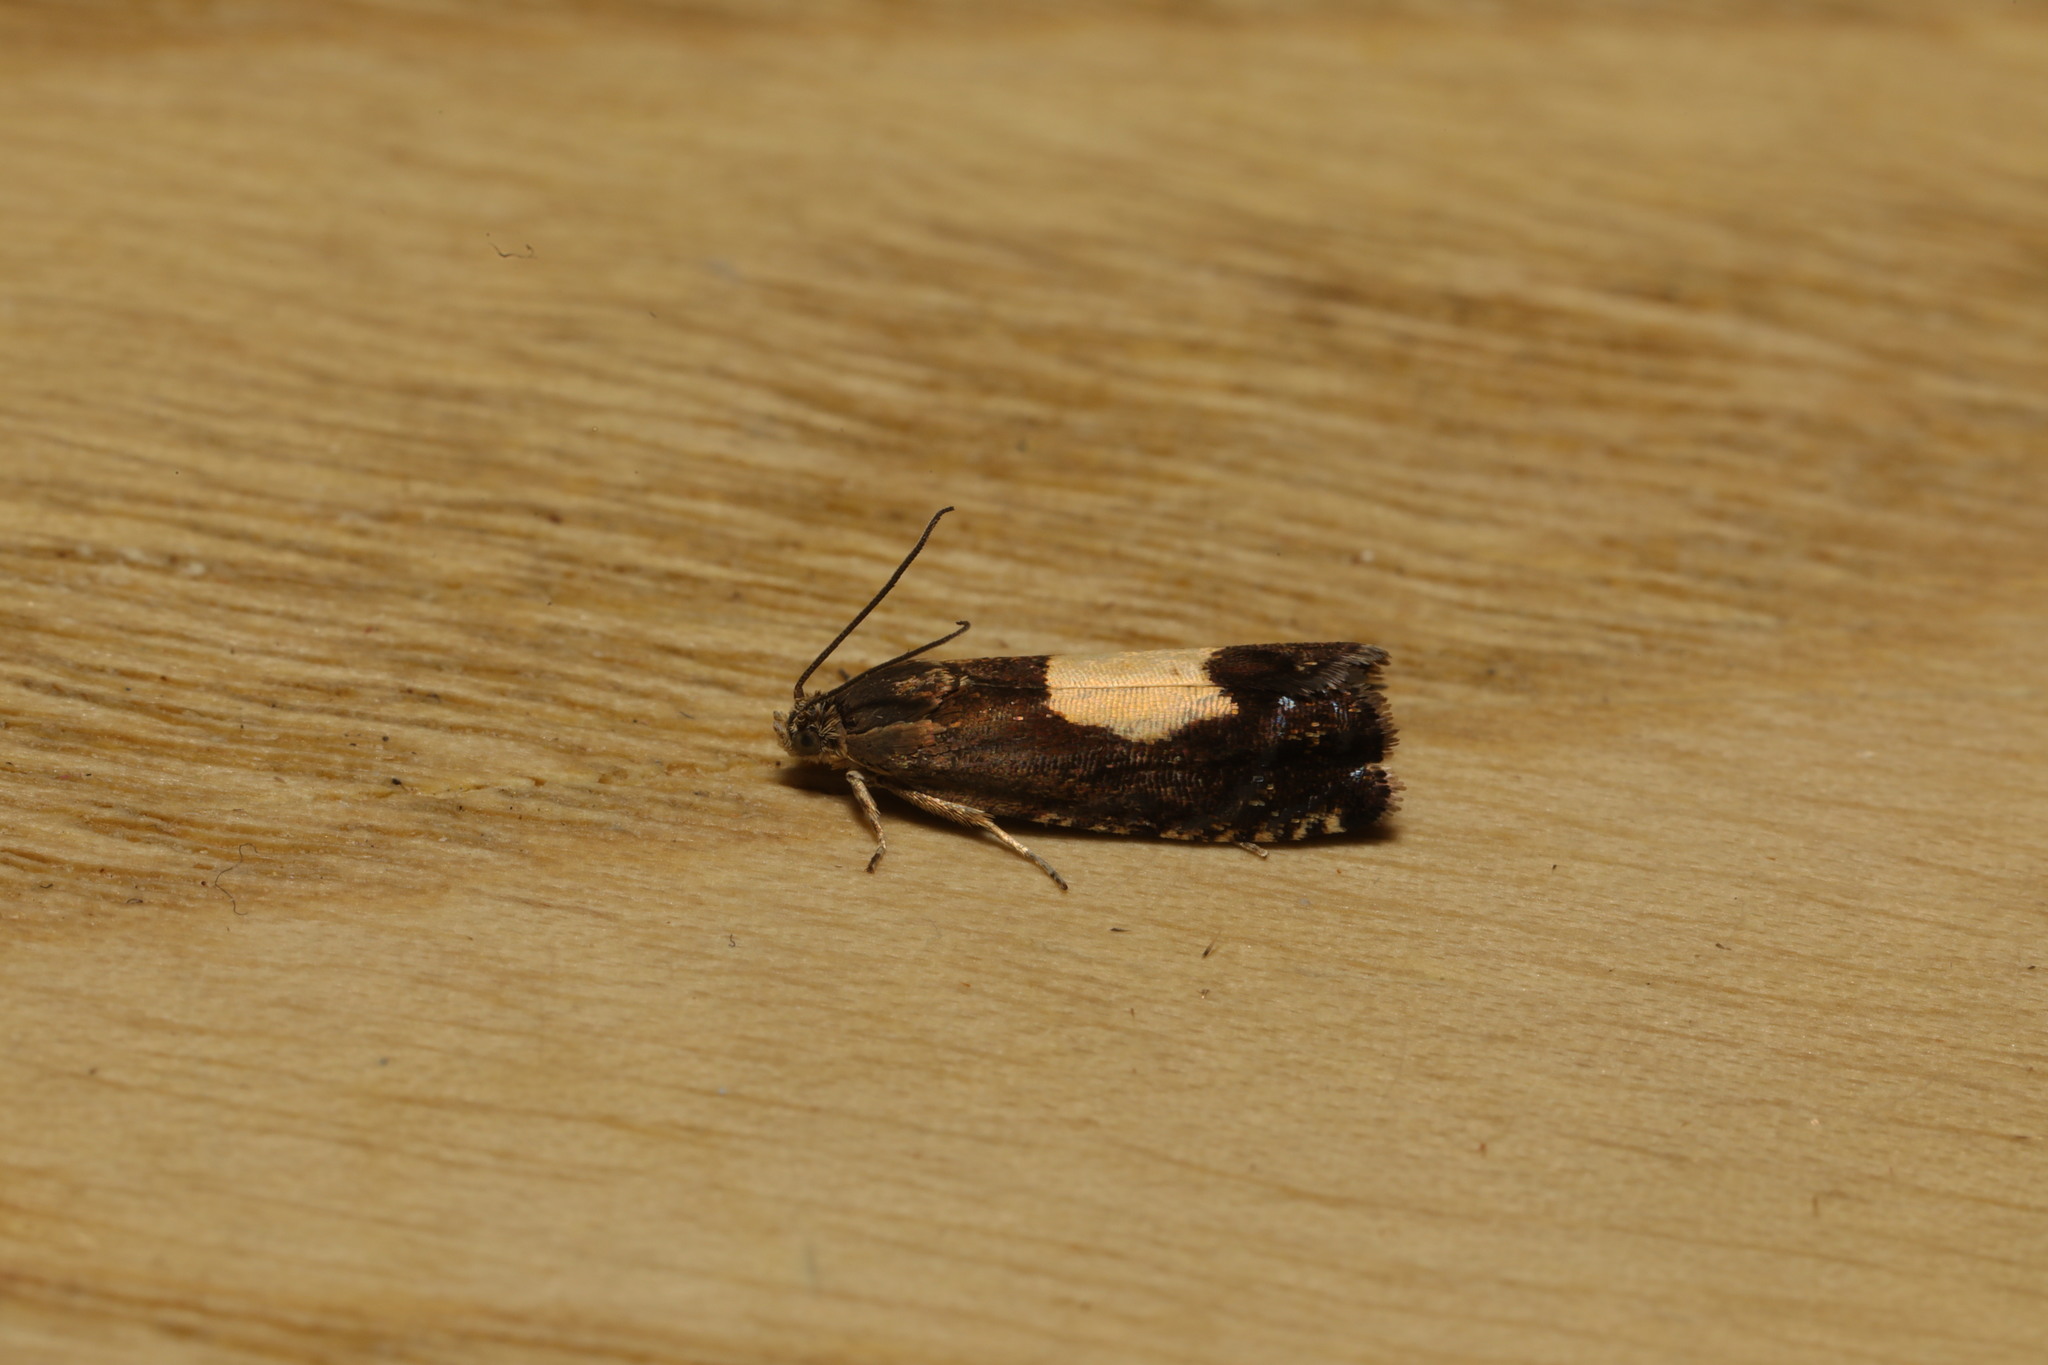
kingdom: Animalia
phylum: Arthropoda
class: Insecta
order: Lepidoptera
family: Tortricidae
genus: Pammene
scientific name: Pammene regiana
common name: Regal piercer
